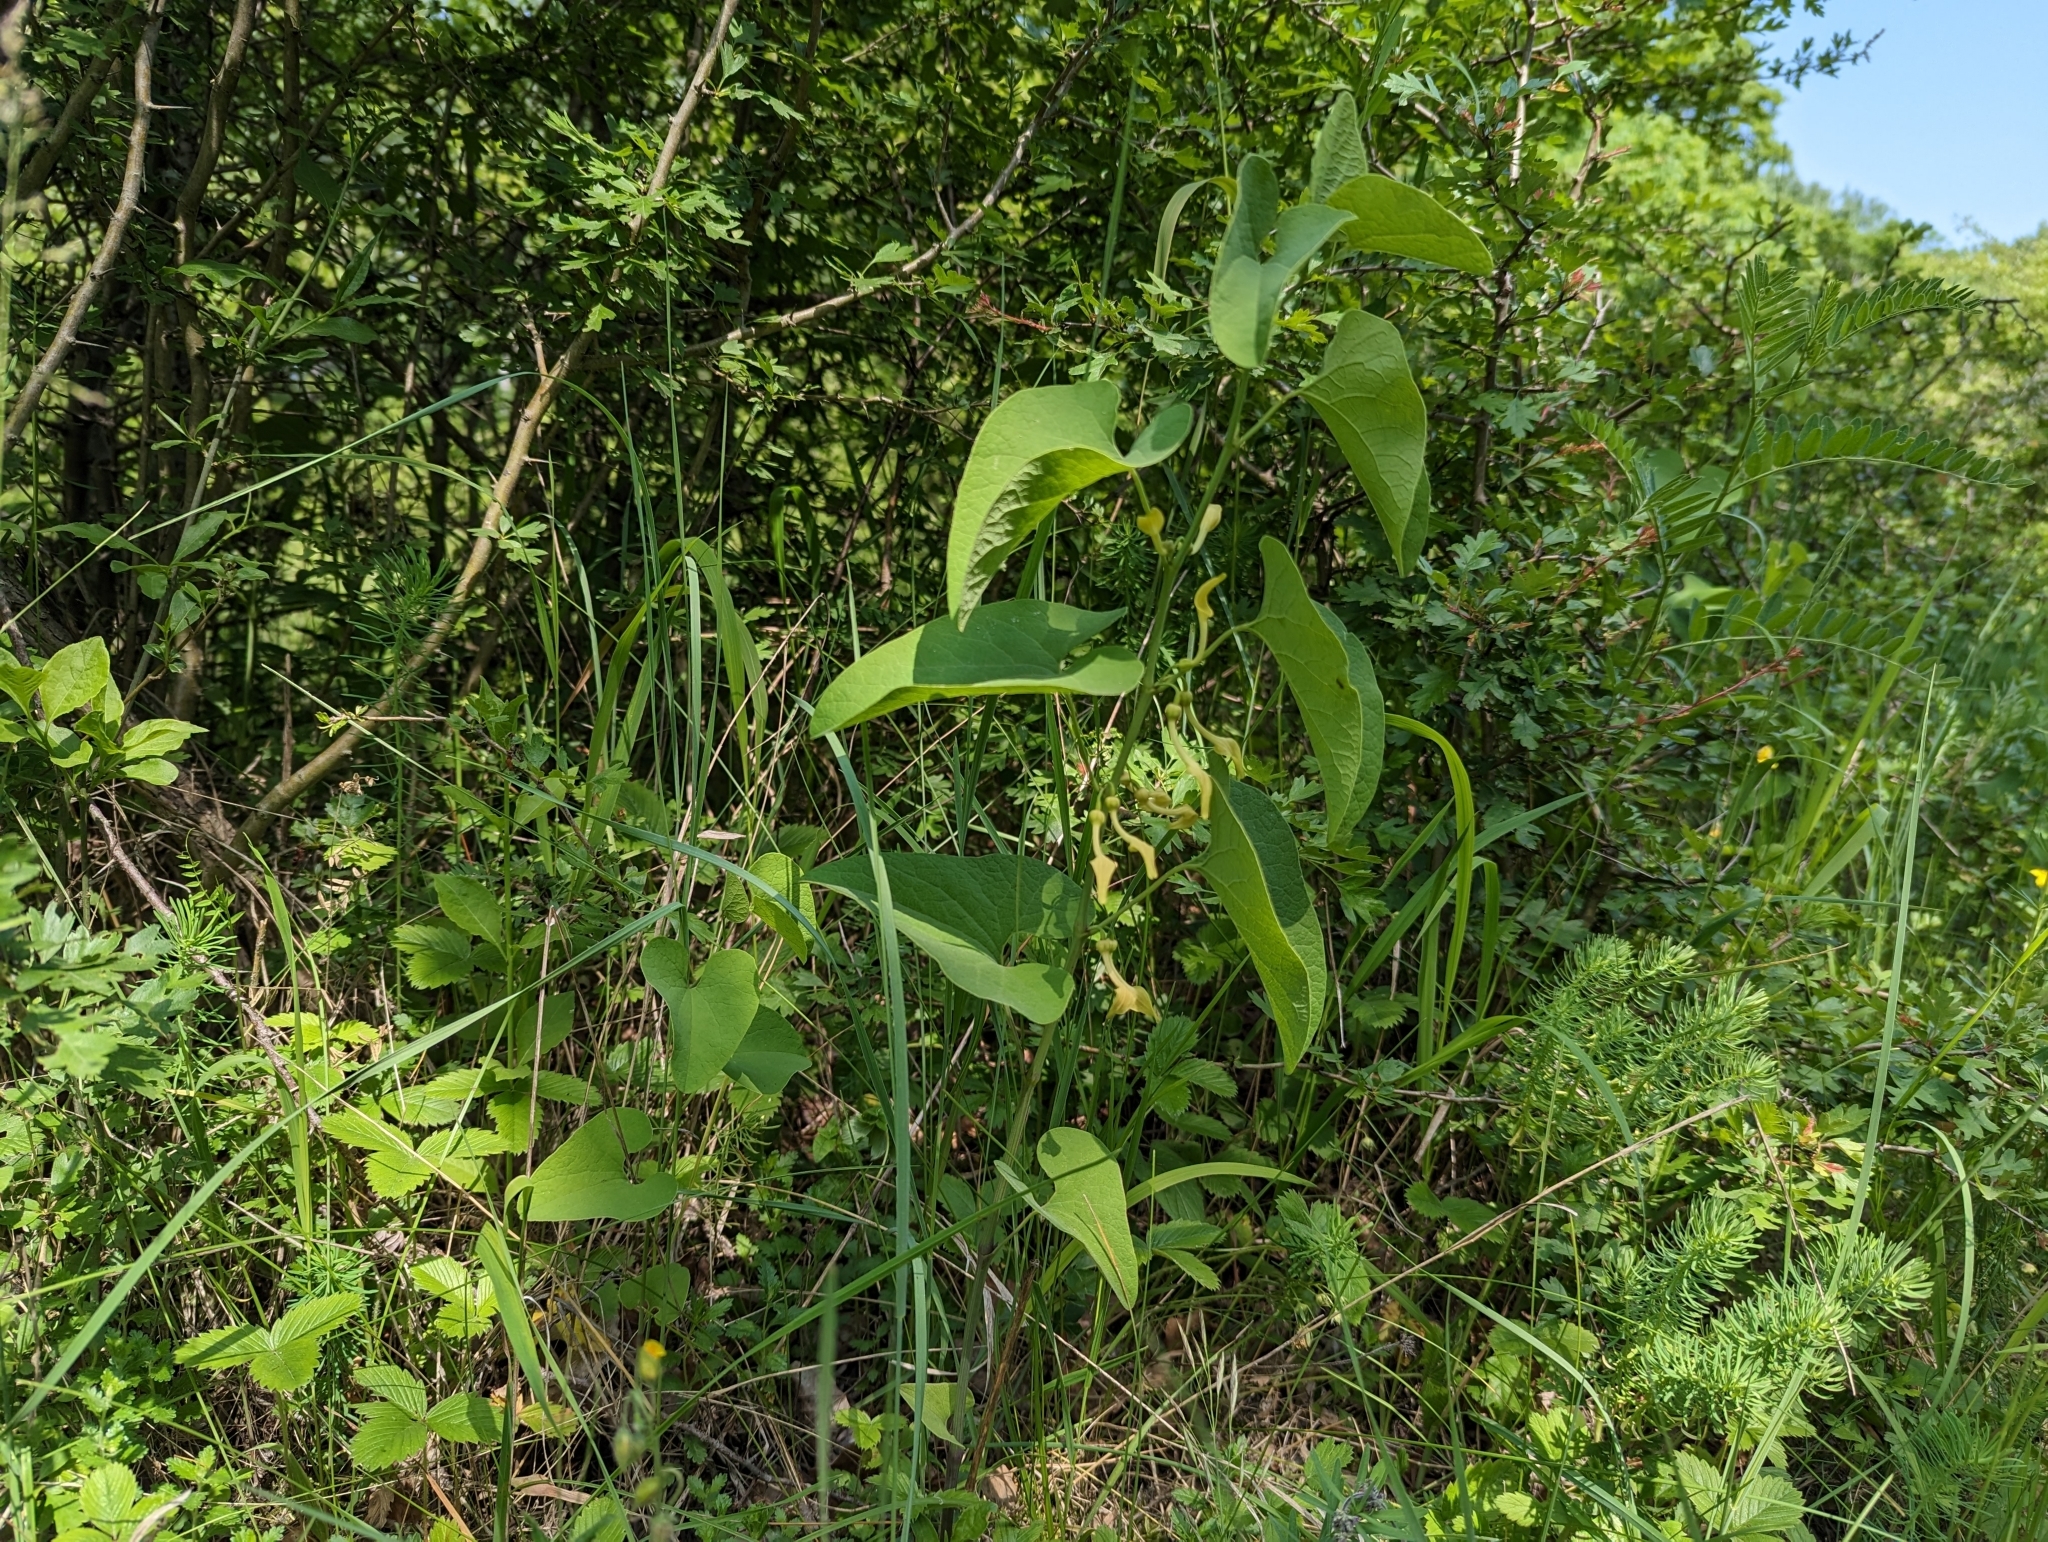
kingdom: Plantae
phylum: Tracheophyta
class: Magnoliopsida
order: Piperales
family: Aristolochiaceae
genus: Aristolochia
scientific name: Aristolochia clematitis
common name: Birthwort
